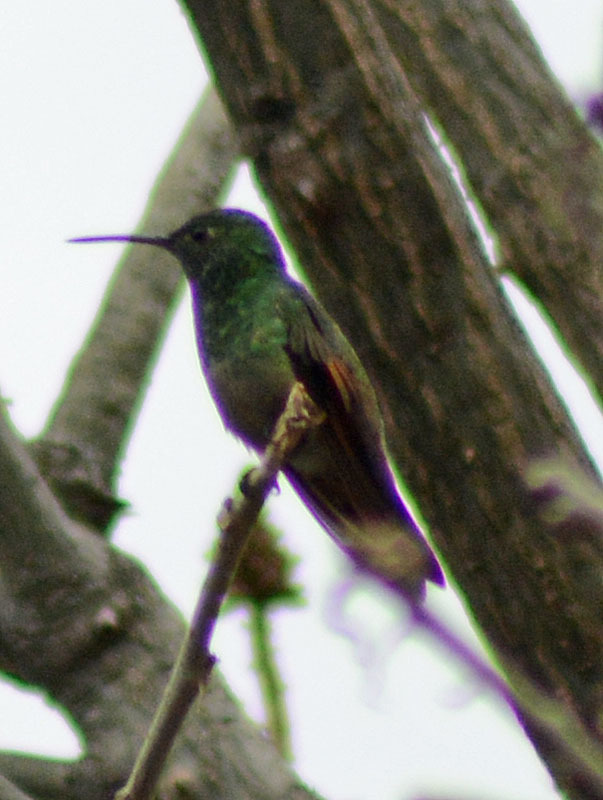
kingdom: Animalia
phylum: Chordata
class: Aves
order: Apodiformes
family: Trochilidae
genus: Saucerottia
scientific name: Saucerottia beryllina
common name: Berylline hummingbird
